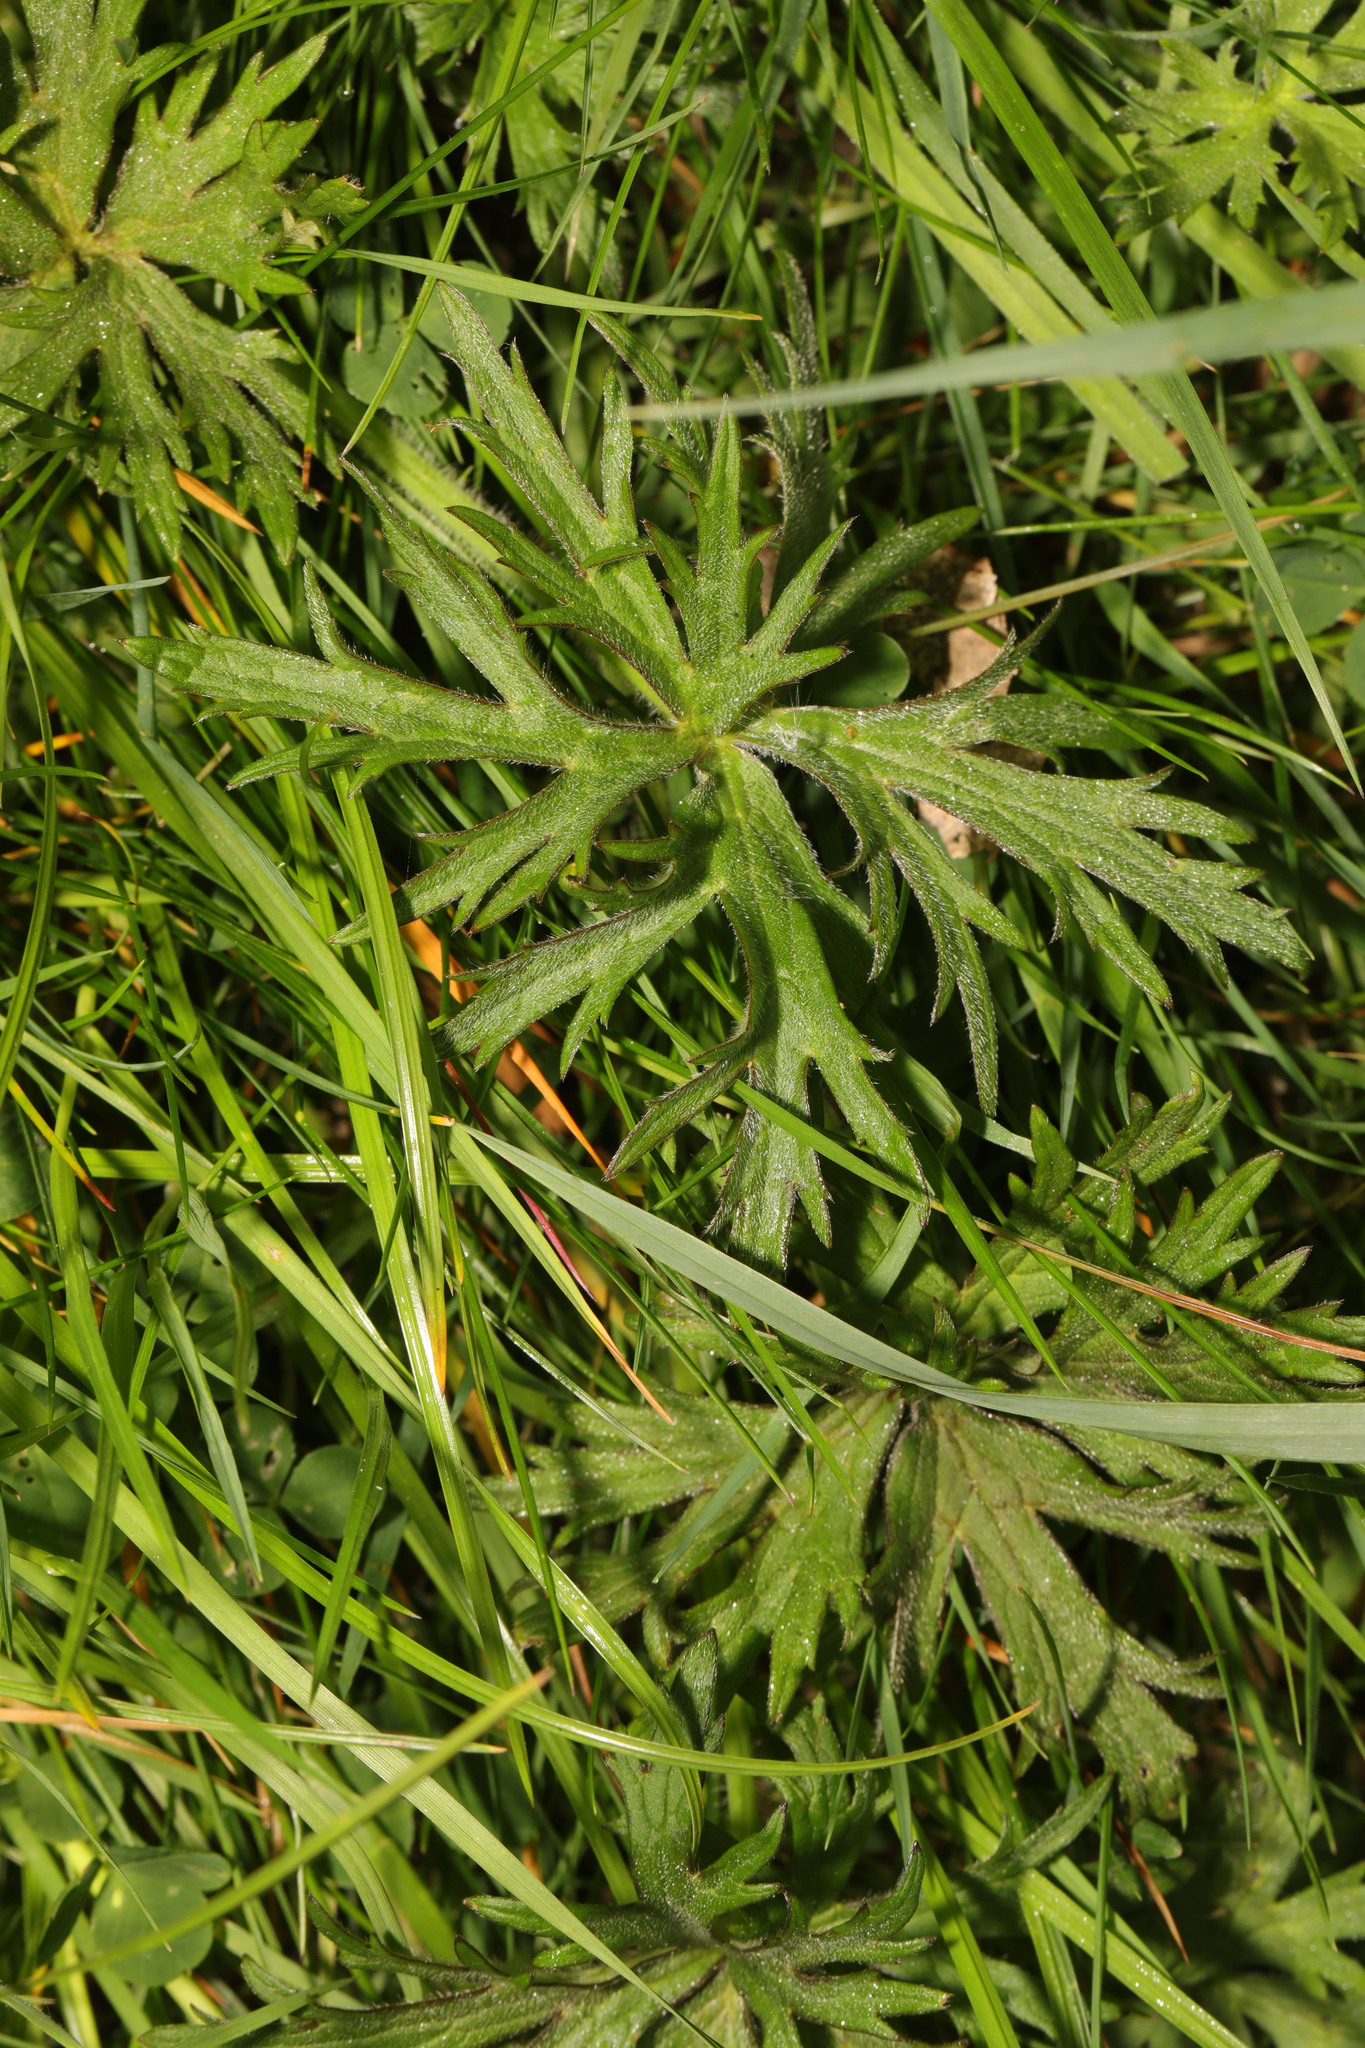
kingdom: Plantae
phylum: Tracheophyta
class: Magnoliopsida
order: Ranunculales
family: Ranunculaceae
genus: Ranunculus
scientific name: Ranunculus acris
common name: Meadow buttercup
